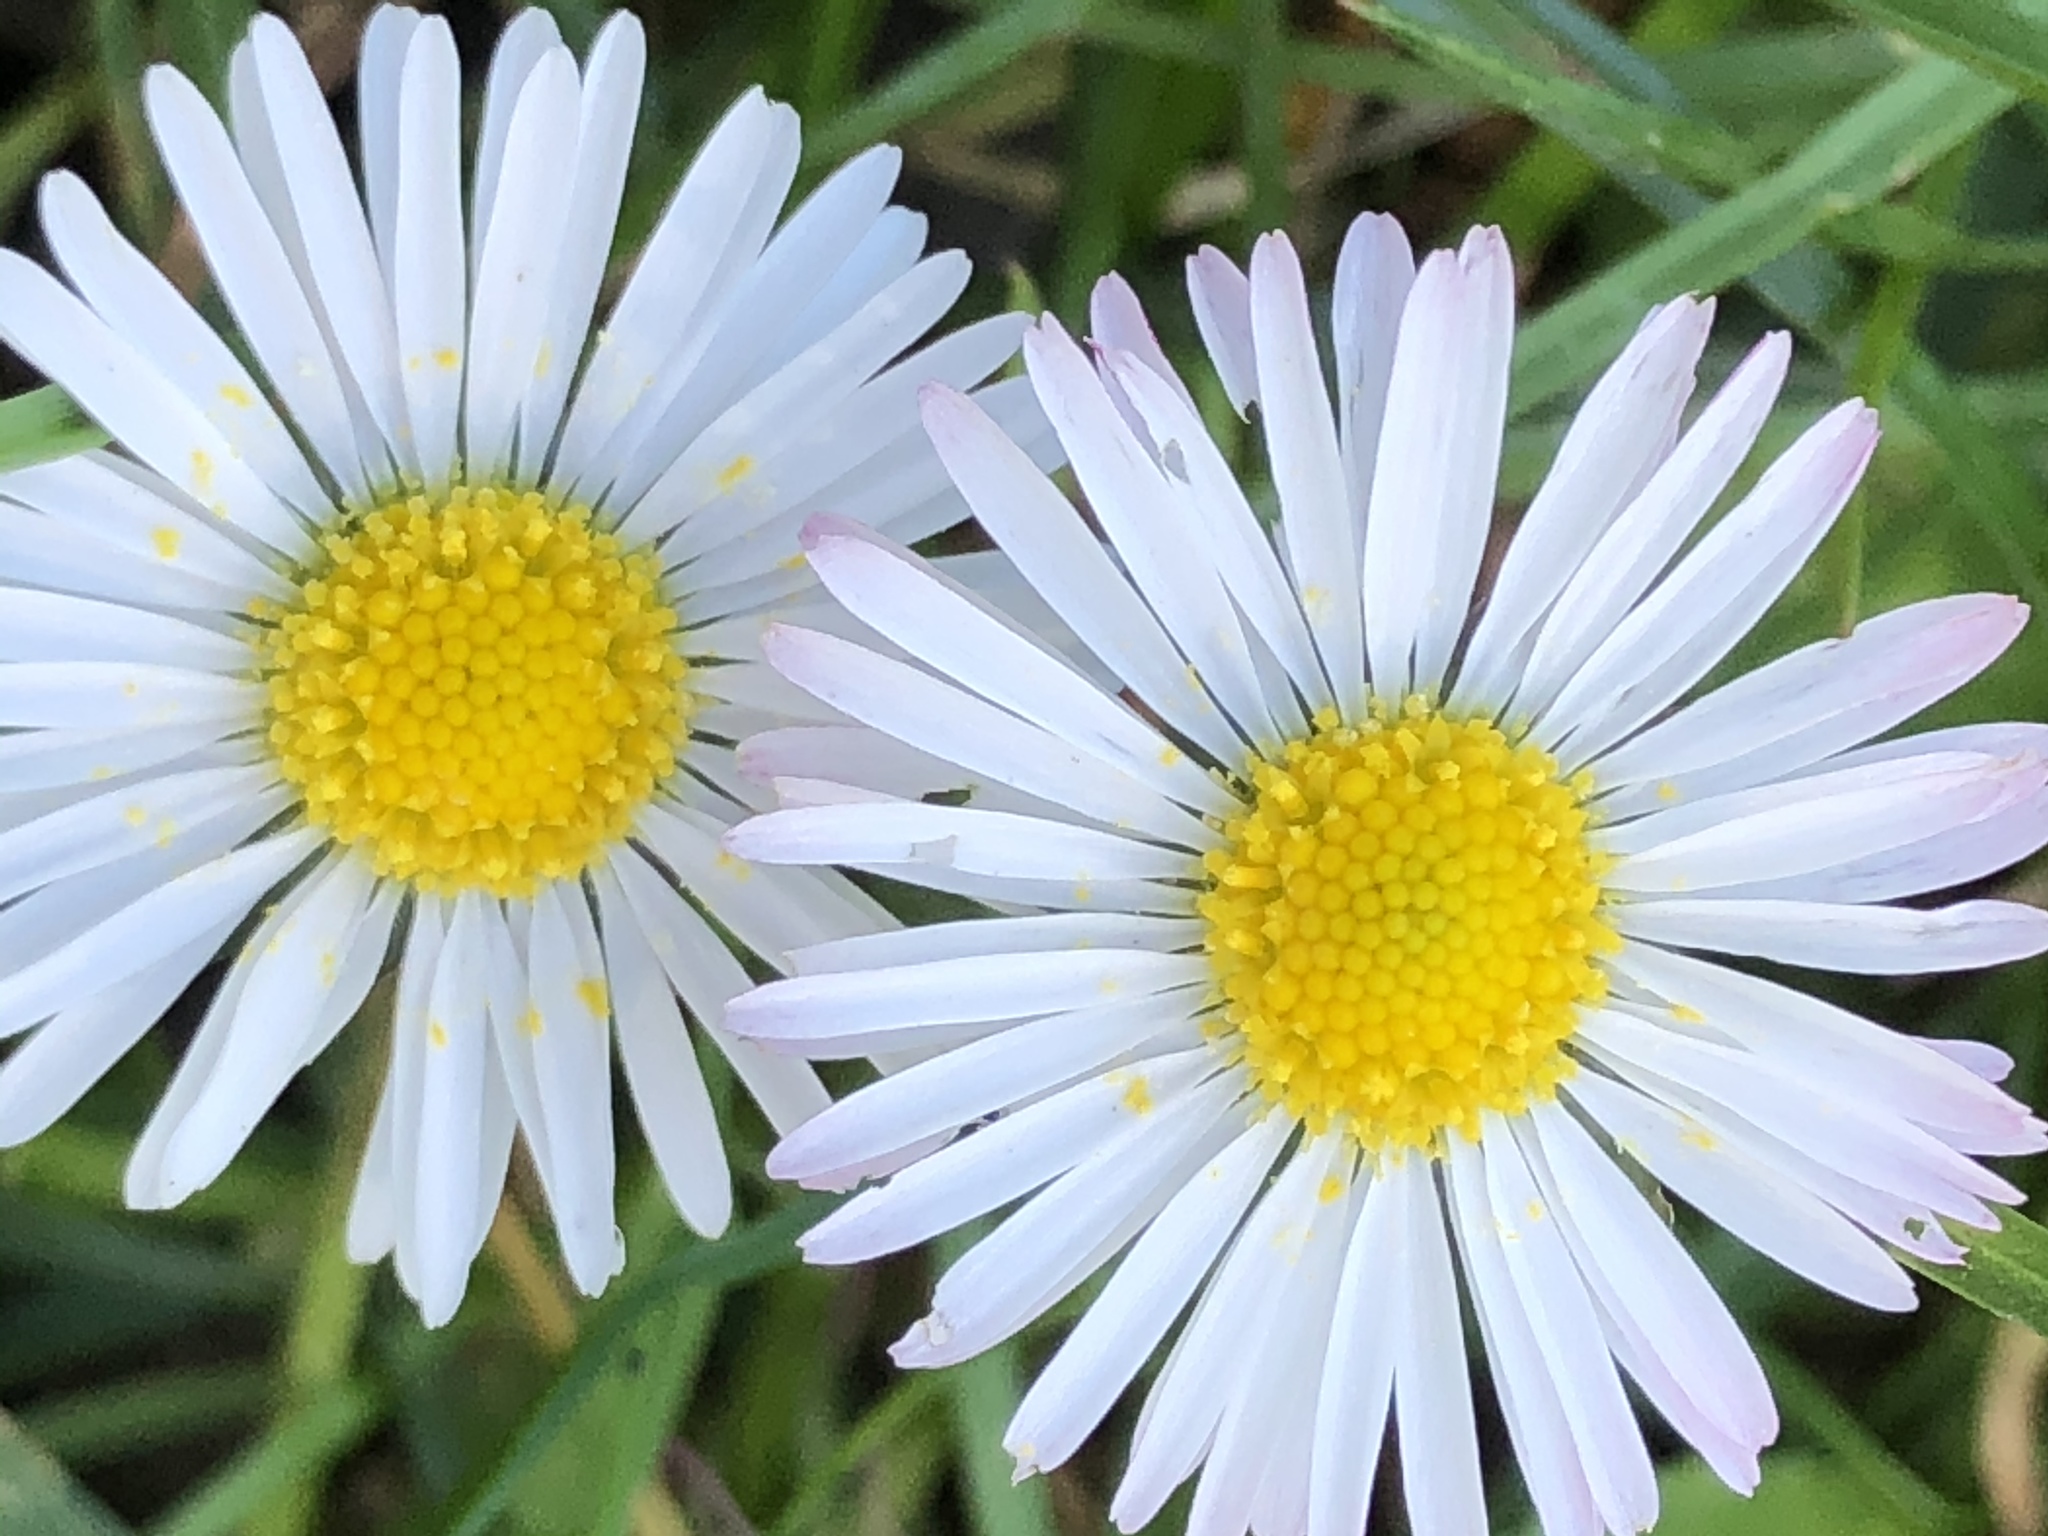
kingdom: Plantae
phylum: Tracheophyta
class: Magnoliopsida
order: Asterales
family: Asteraceae
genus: Bellis
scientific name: Bellis perennis
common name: Lawndaisy
